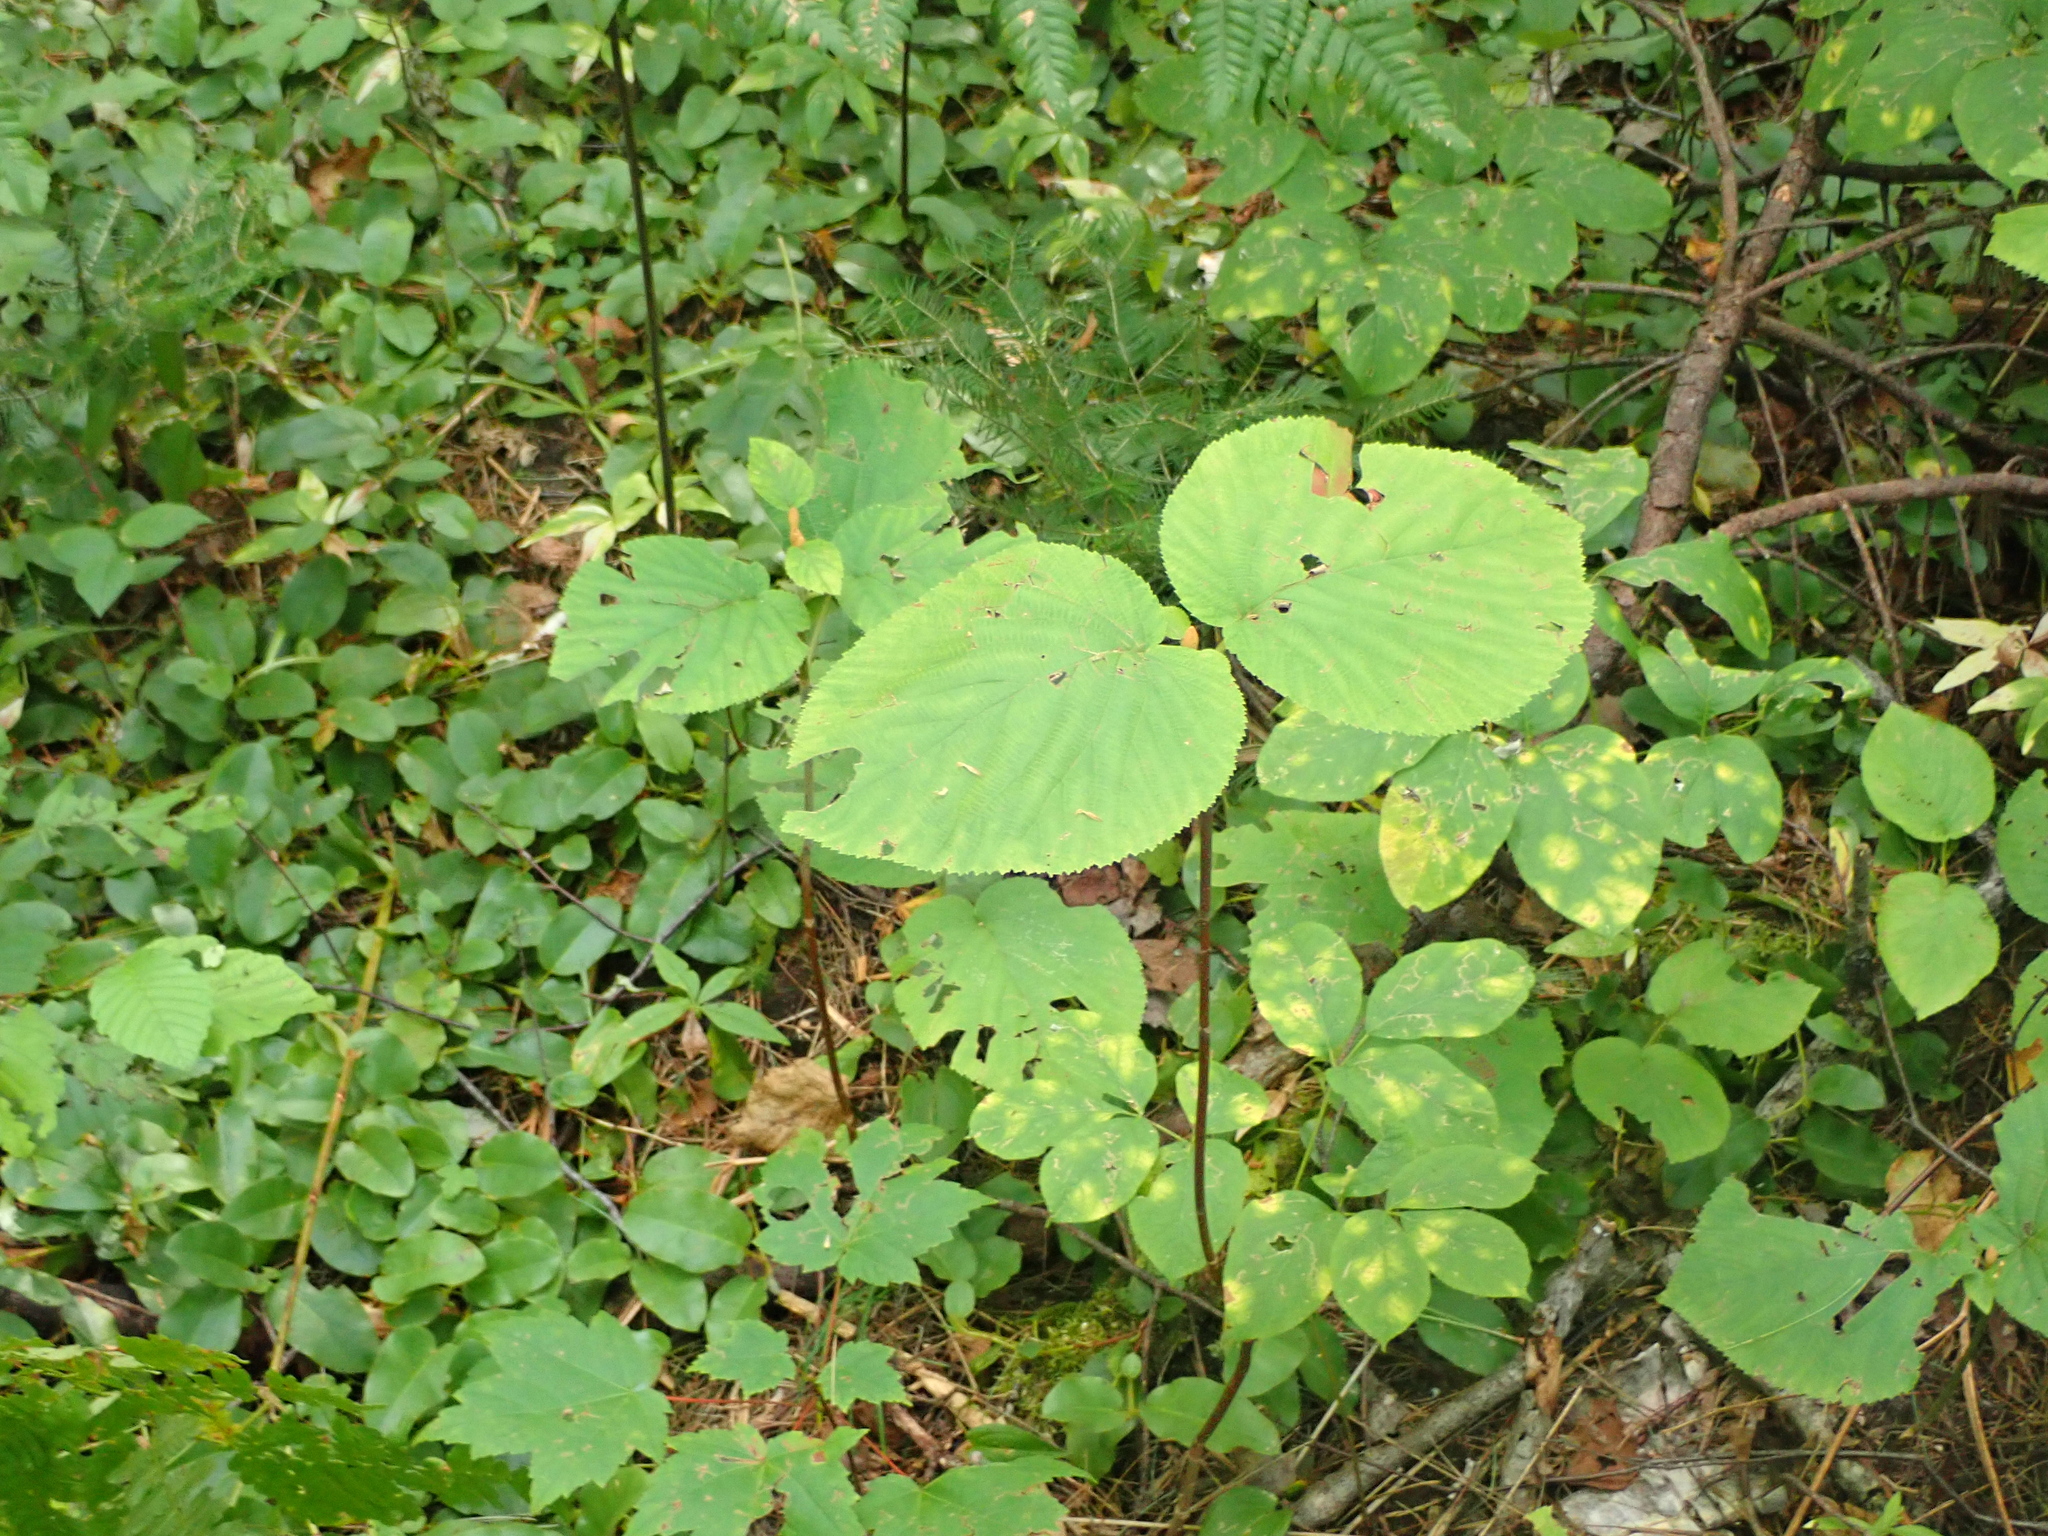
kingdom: Plantae
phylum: Tracheophyta
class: Magnoliopsida
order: Dipsacales
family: Viburnaceae
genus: Viburnum
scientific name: Viburnum lantanoides
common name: Hobblebush
